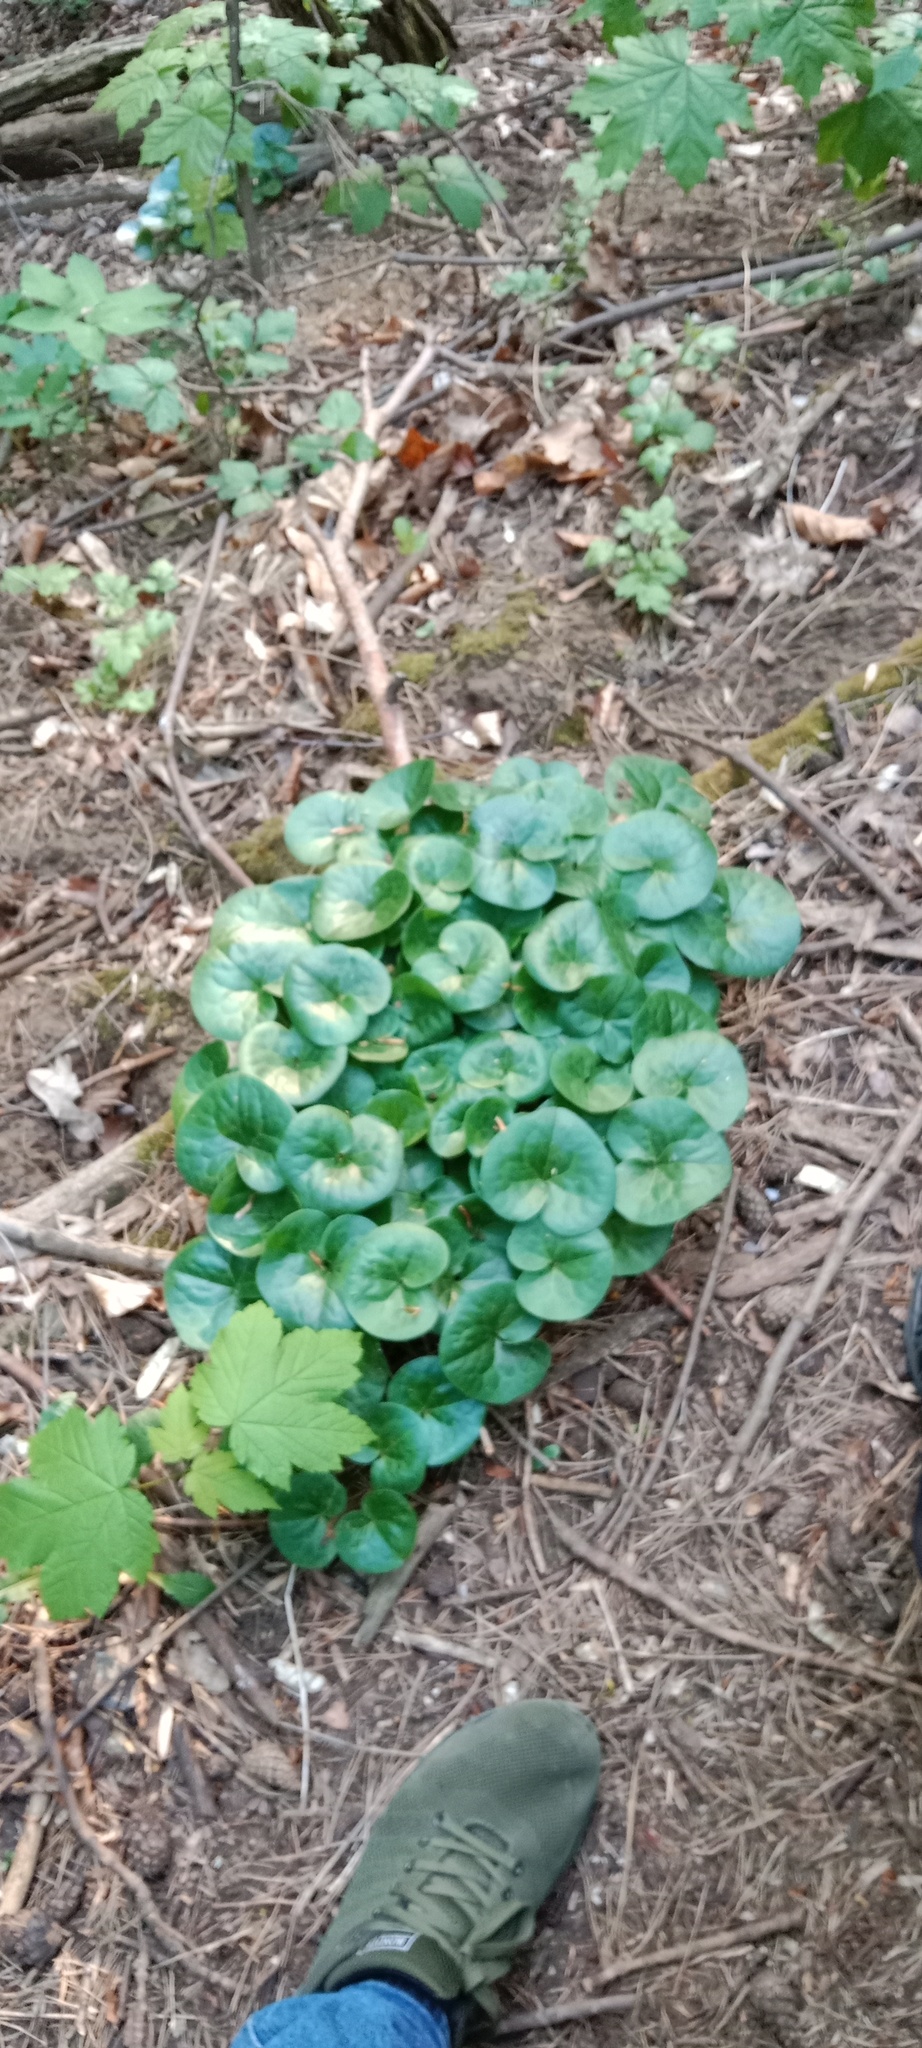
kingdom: Plantae
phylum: Tracheophyta
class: Magnoliopsida
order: Piperales
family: Aristolochiaceae
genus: Asarum
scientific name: Asarum europaeum
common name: Asarabacca
